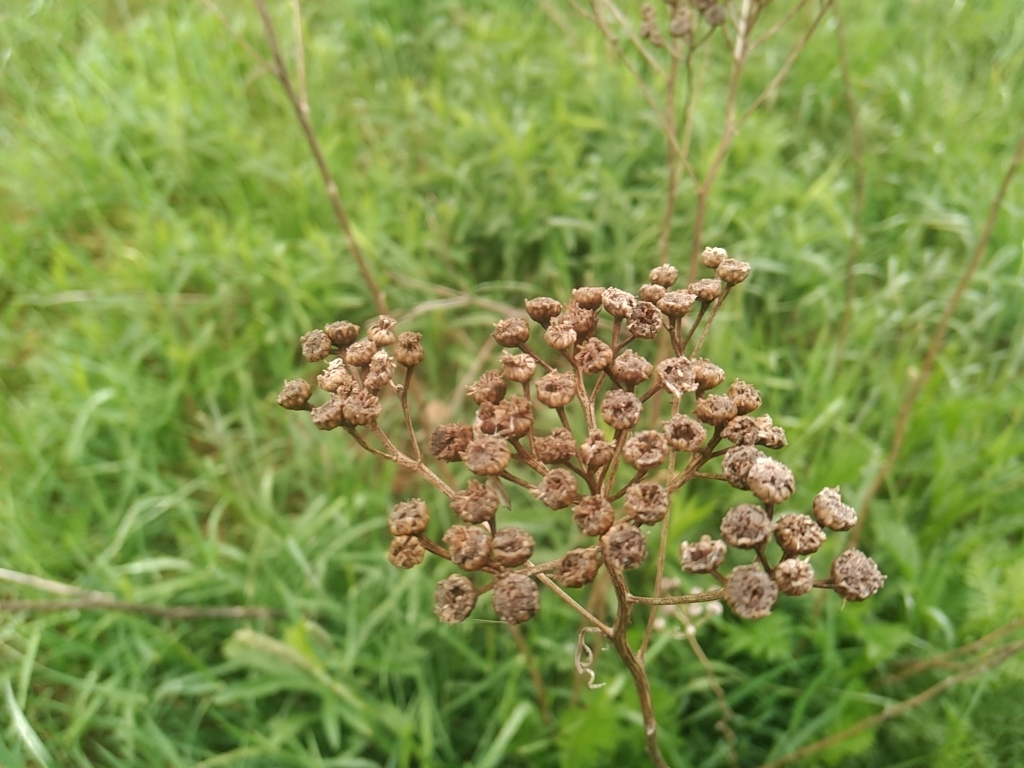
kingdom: Plantae
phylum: Tracheophyta
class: Magnoliopsida
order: Asterales
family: Asteraceae
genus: Tanacetum
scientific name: Tanacetum vulgare
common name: Common tansy
